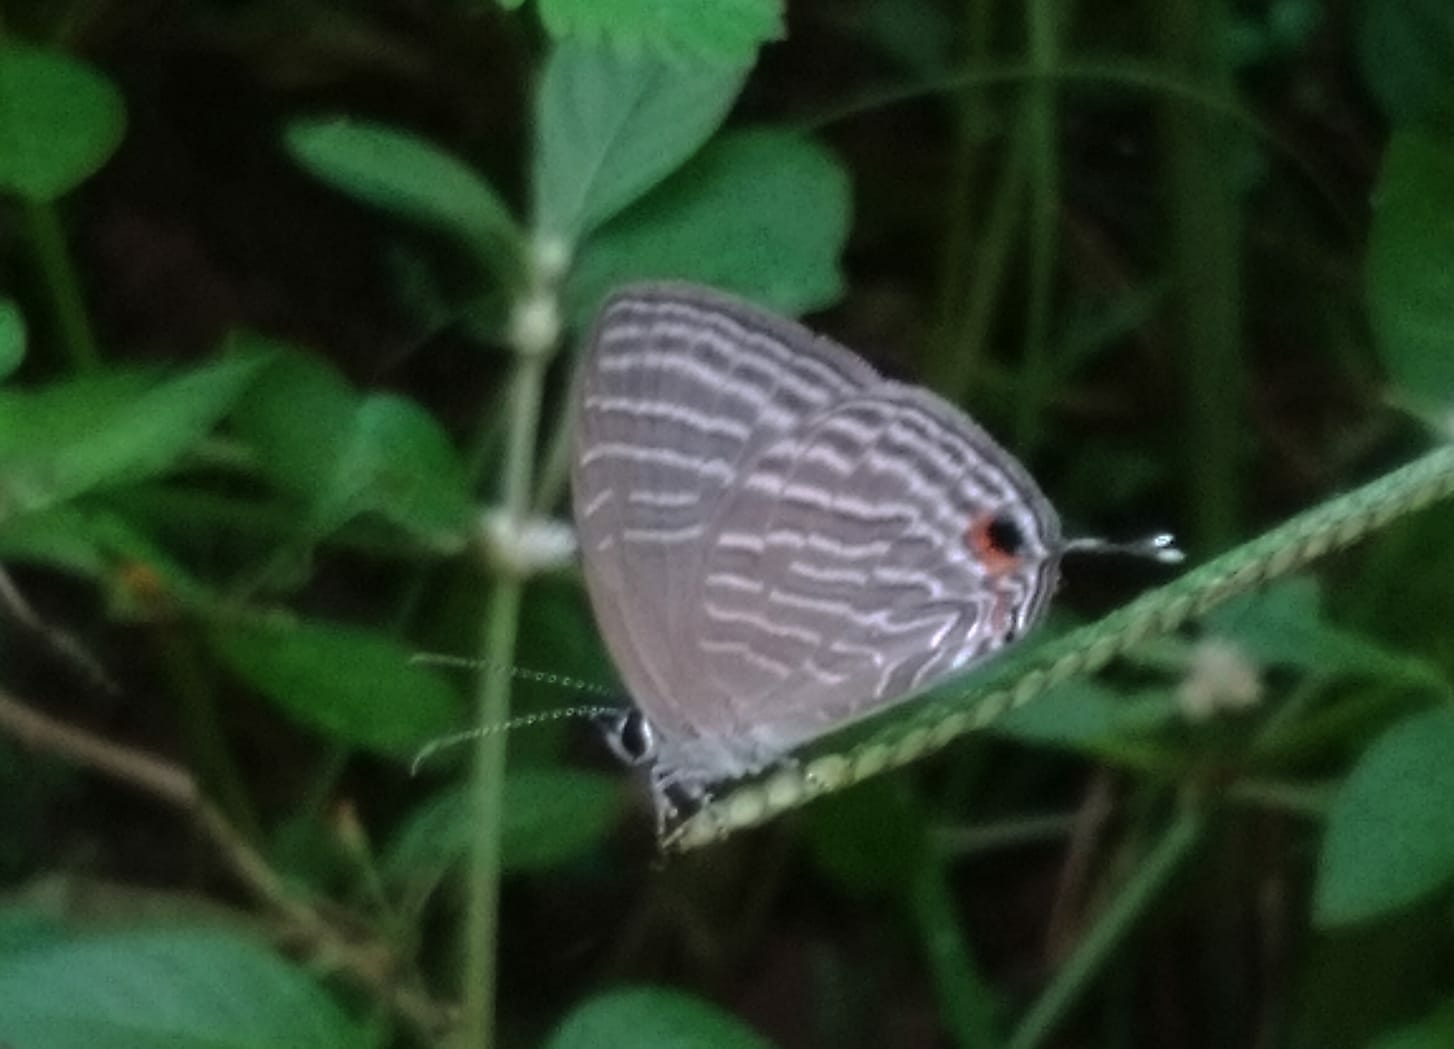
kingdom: Animalia
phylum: Arthropoda
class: Insecta
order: Lepidoptera
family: Lycaenidae
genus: Jamides
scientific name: Jamides celeno
